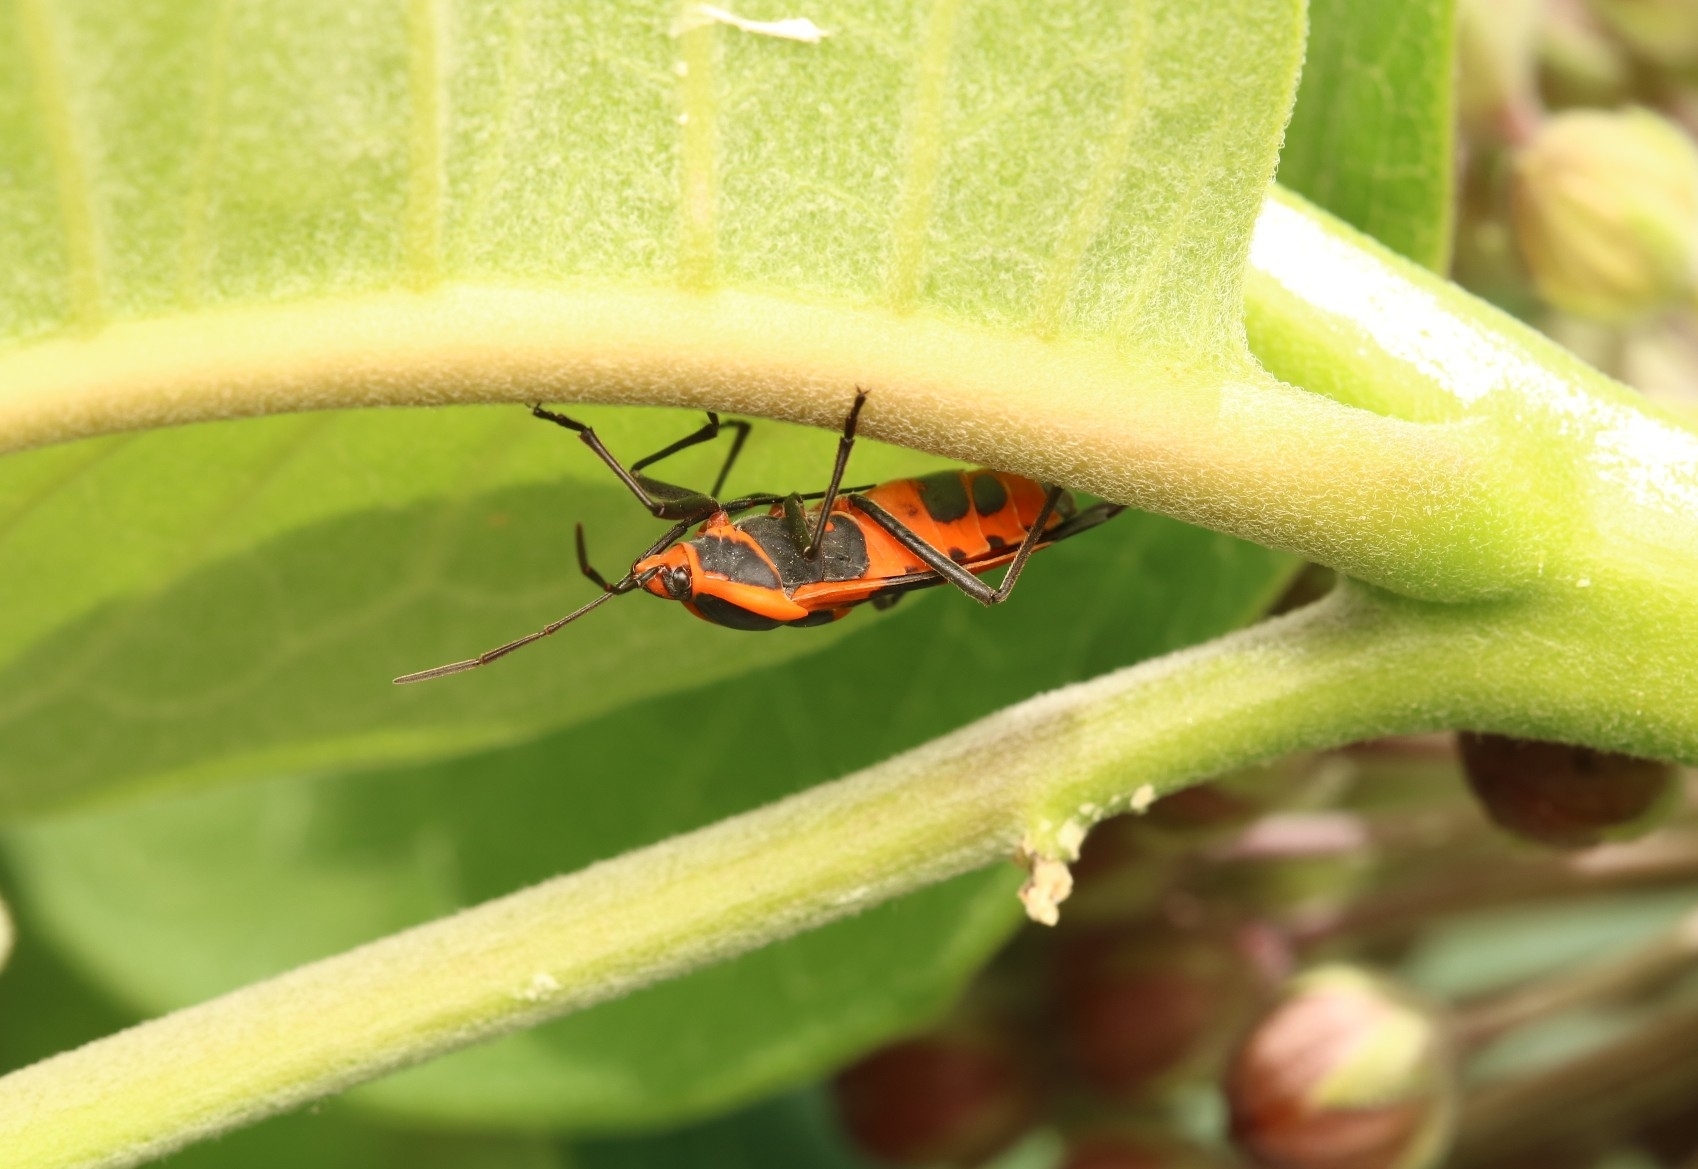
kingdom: Animalia
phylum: Arthropoda
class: Insecta
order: Hemiptera
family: Lygaeidae
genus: Oncopeltus
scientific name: Oncopeltus fasciatus
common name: Large milkweed bug
